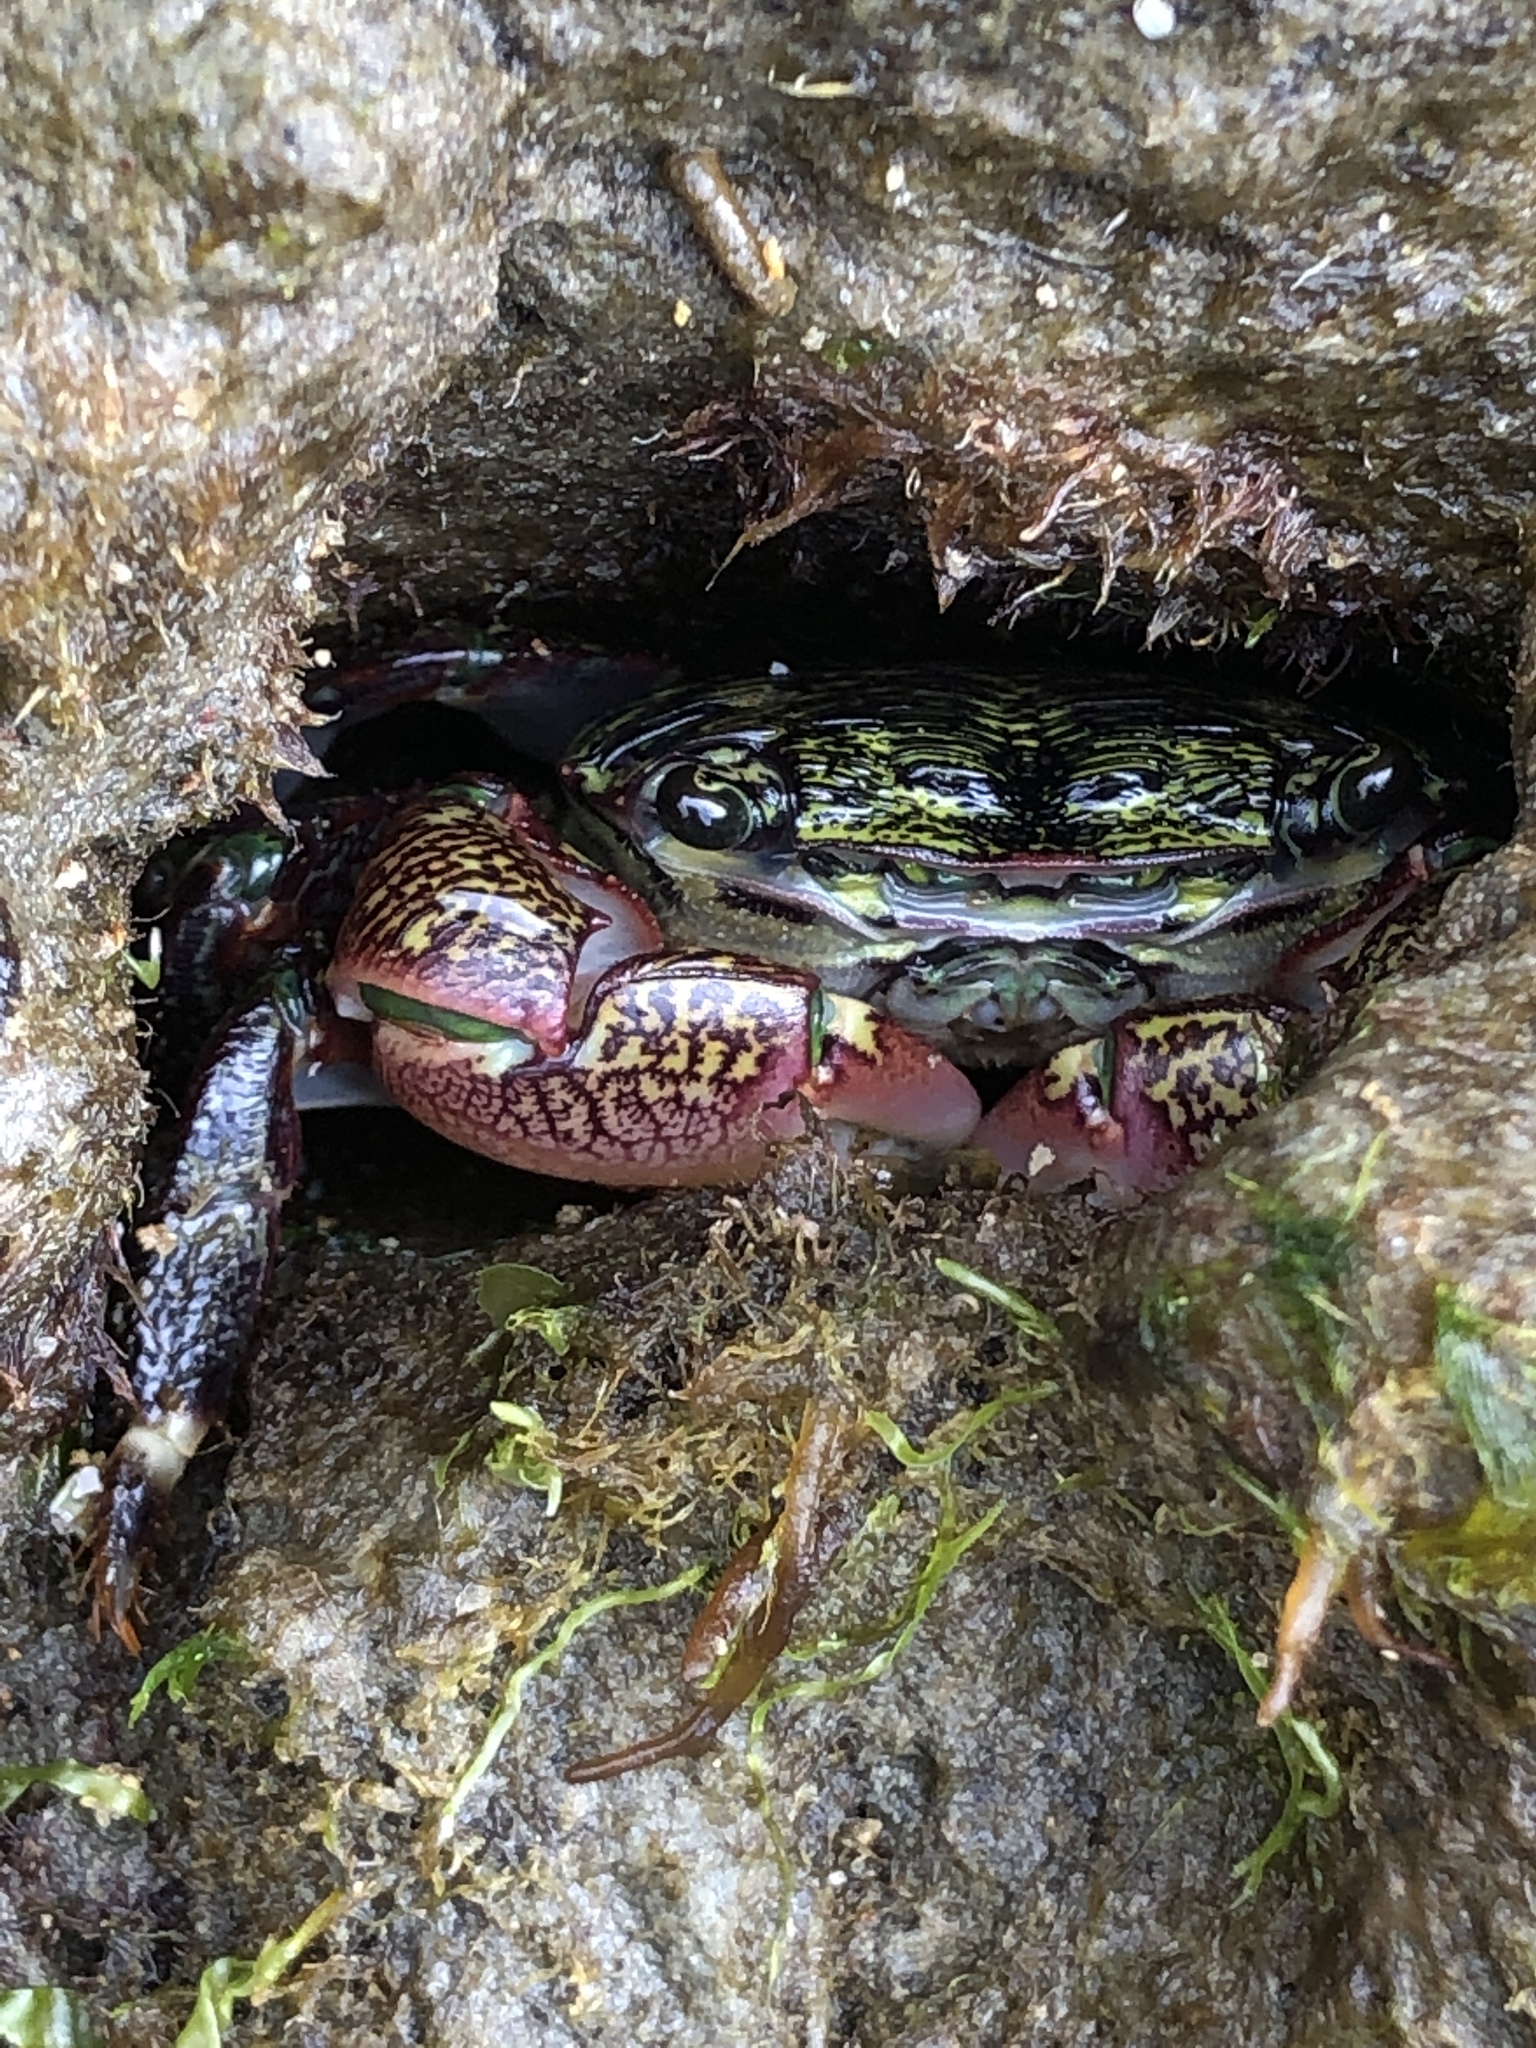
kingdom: Animalia
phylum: Arthropoda
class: Malacostraca
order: Decapoda
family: Grapsidae
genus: Pachygrapsus
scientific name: Pachygrapsus crassipes
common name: Striped shore crab
